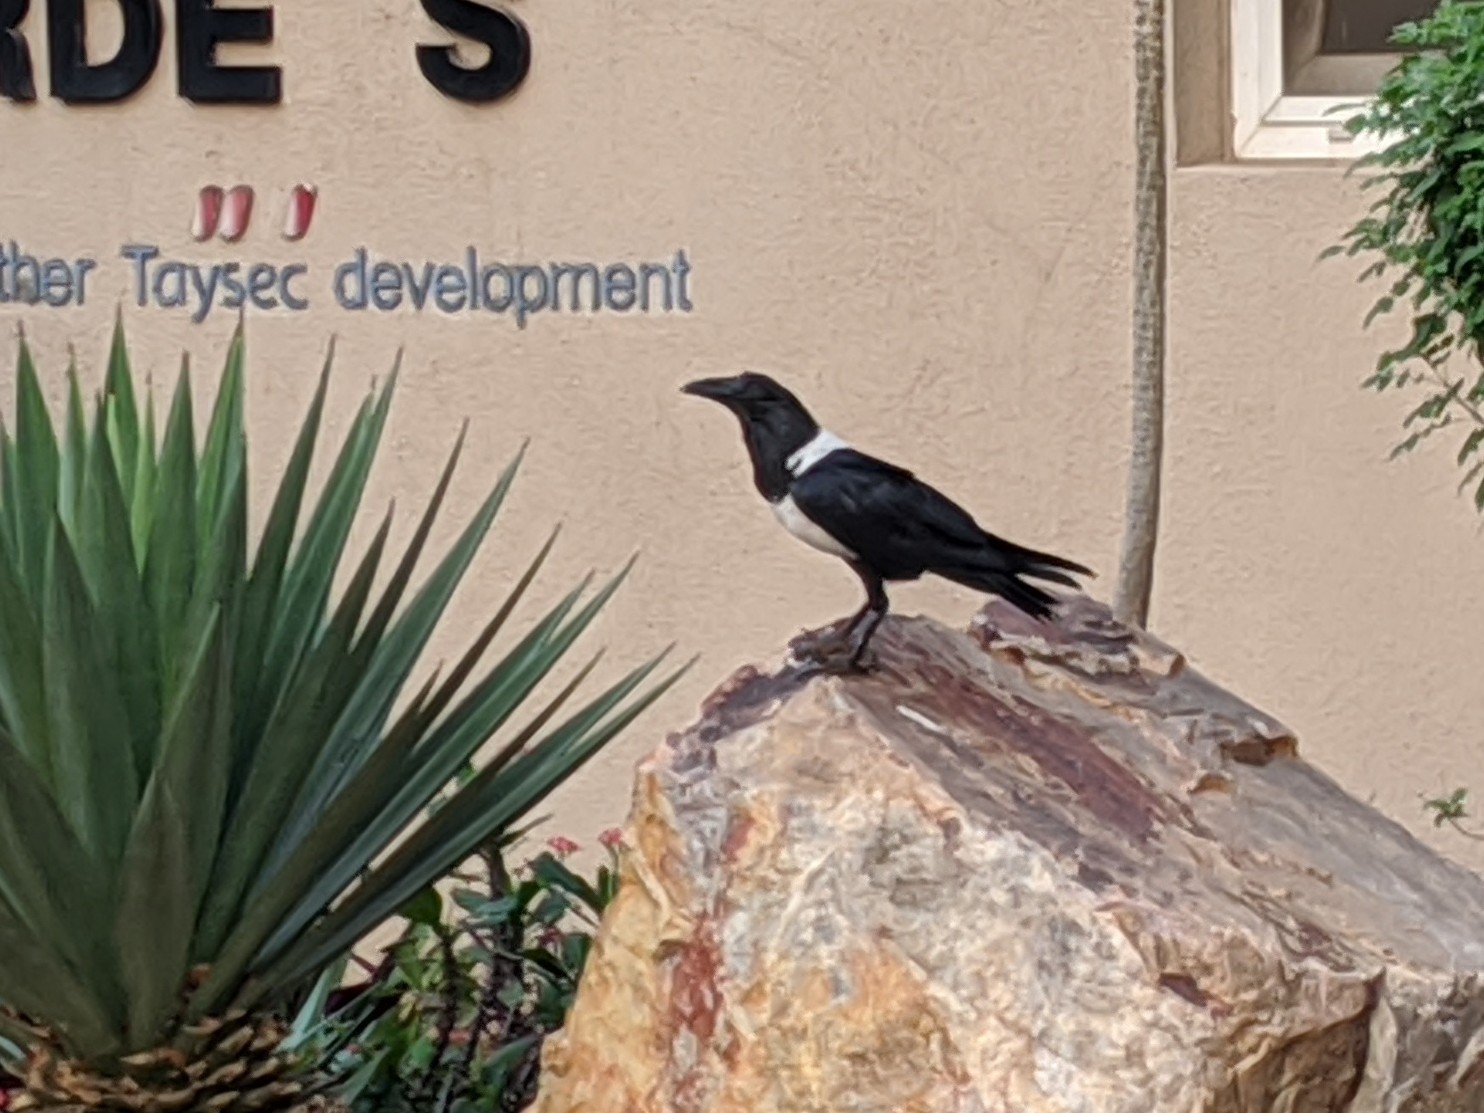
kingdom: Animalia
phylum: Chordata
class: Aves
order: Passeriformes
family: Corvidae
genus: Corvus
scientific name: Corvus albus
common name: Pied crow
